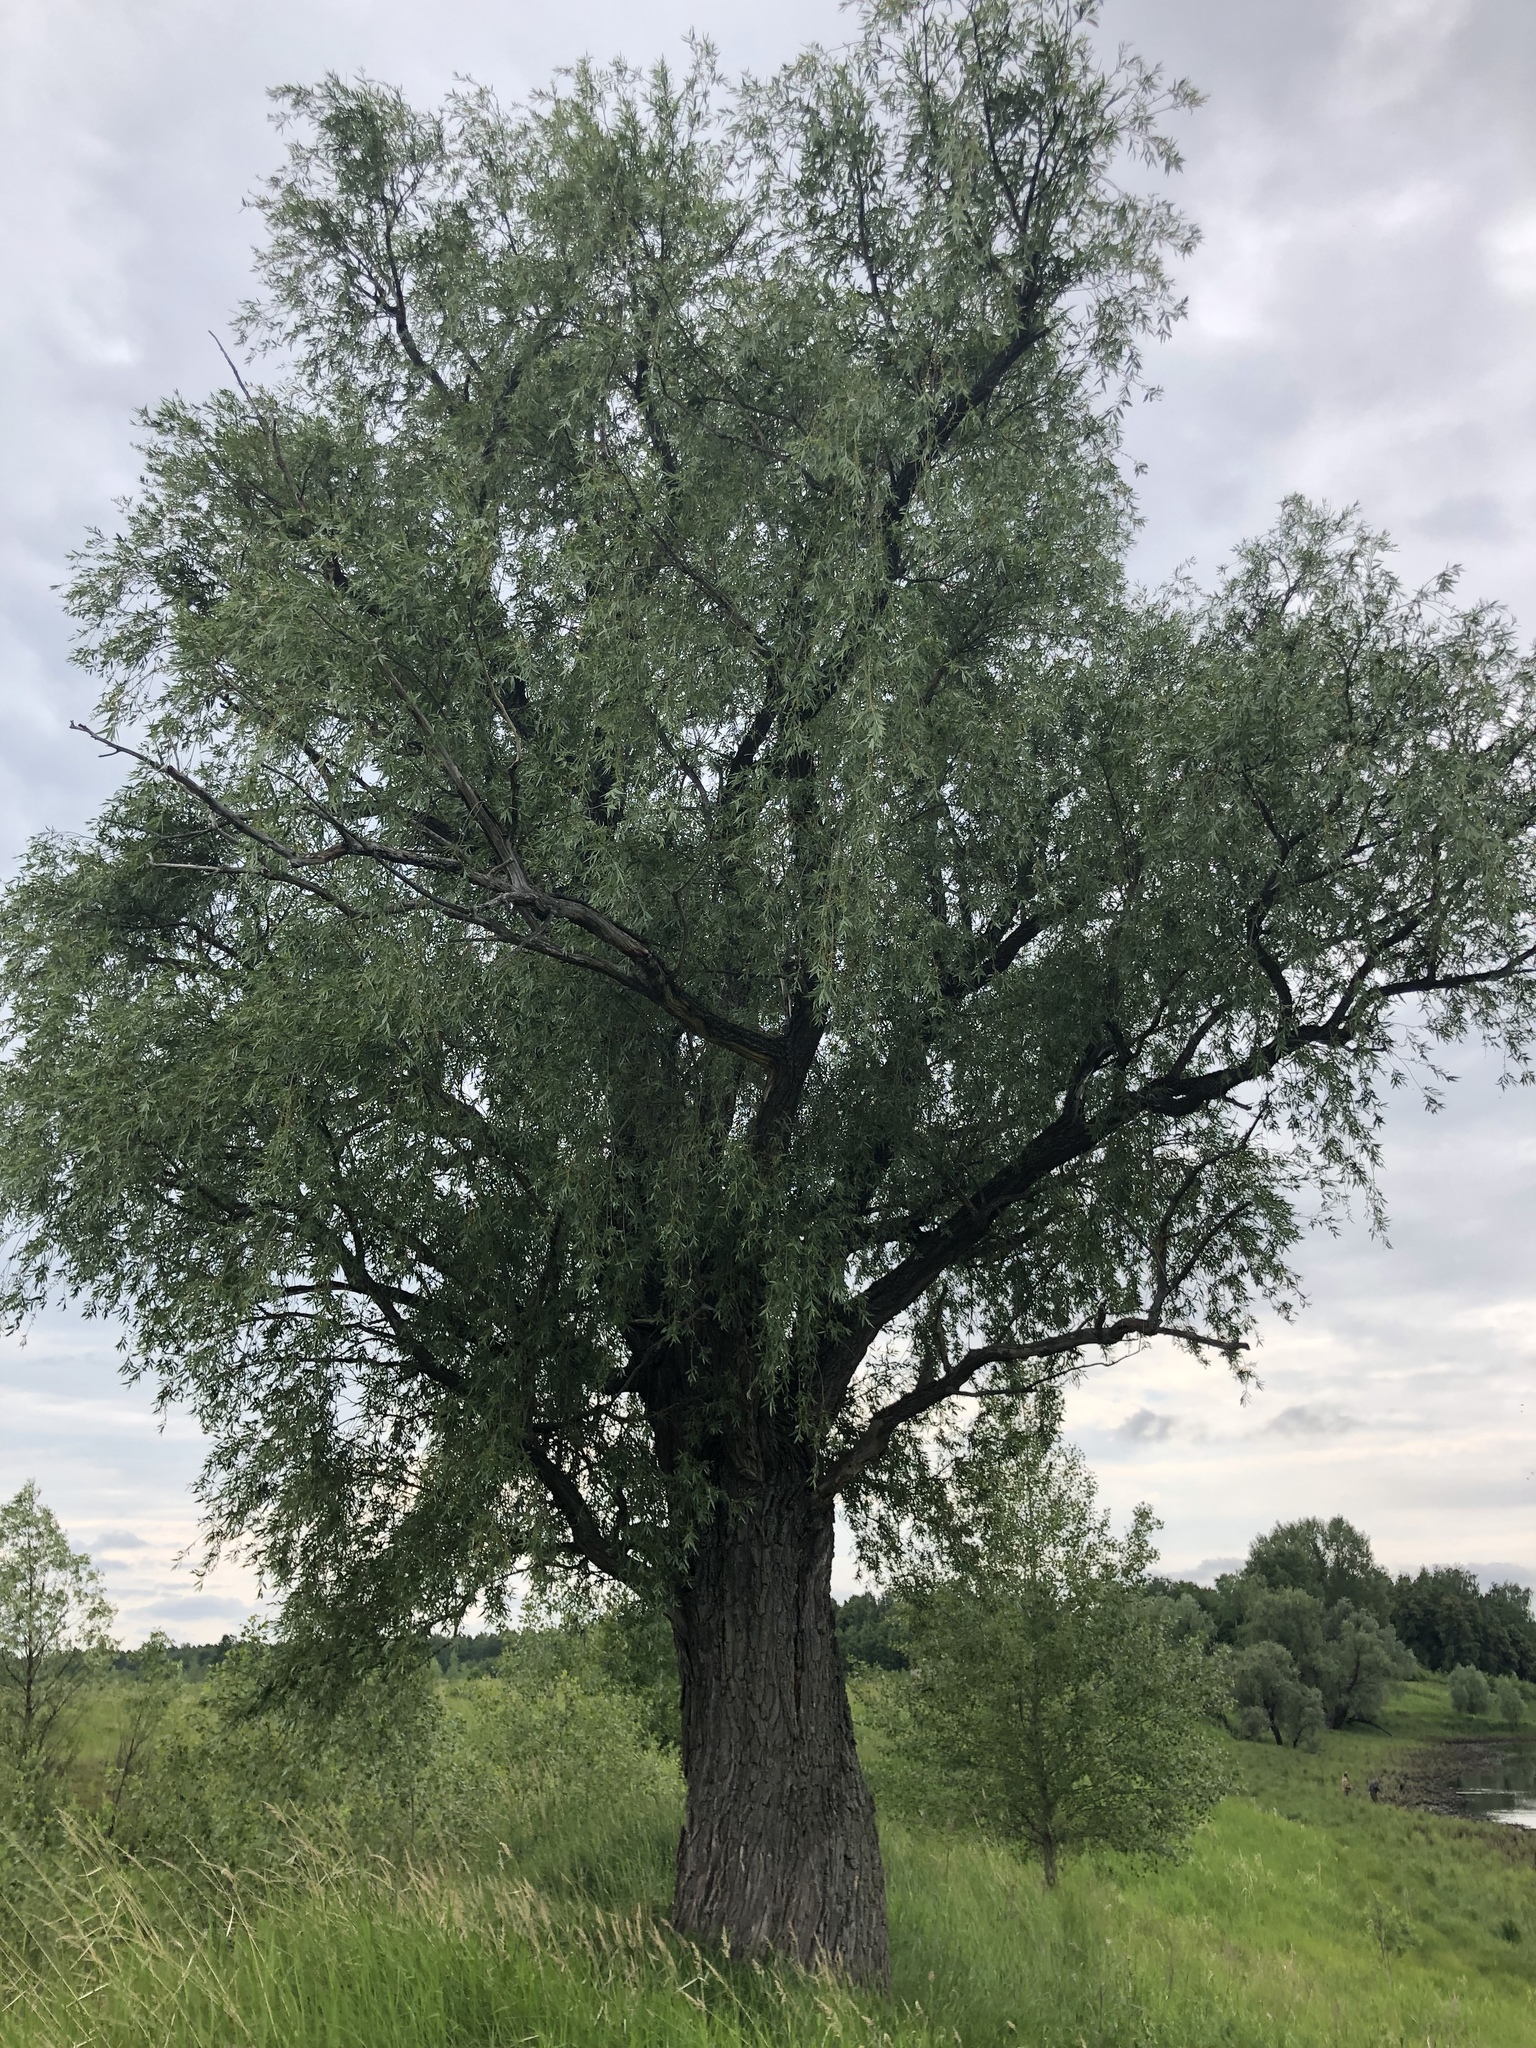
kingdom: Plantae
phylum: Tracheophyta
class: Magnoliopsida
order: Malpighiales
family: Salicaceae
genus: Salix
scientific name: Salix alba
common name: White willow
